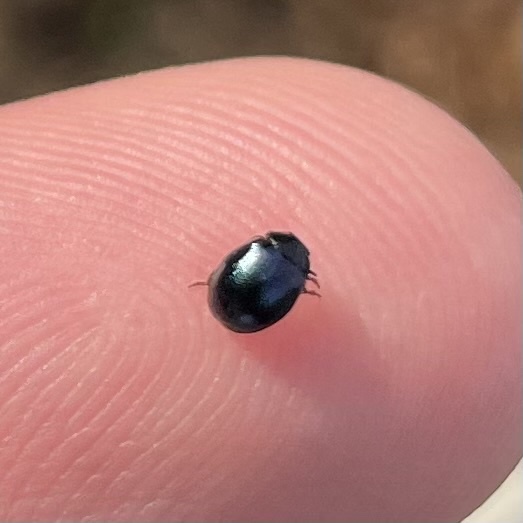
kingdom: Animalia
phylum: Arthropoda
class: Insecta
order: Coleoptera
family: Chrysomelidae
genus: Plagiodera
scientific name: Plagiodera versicolora
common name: Imported willow leaf beetle
